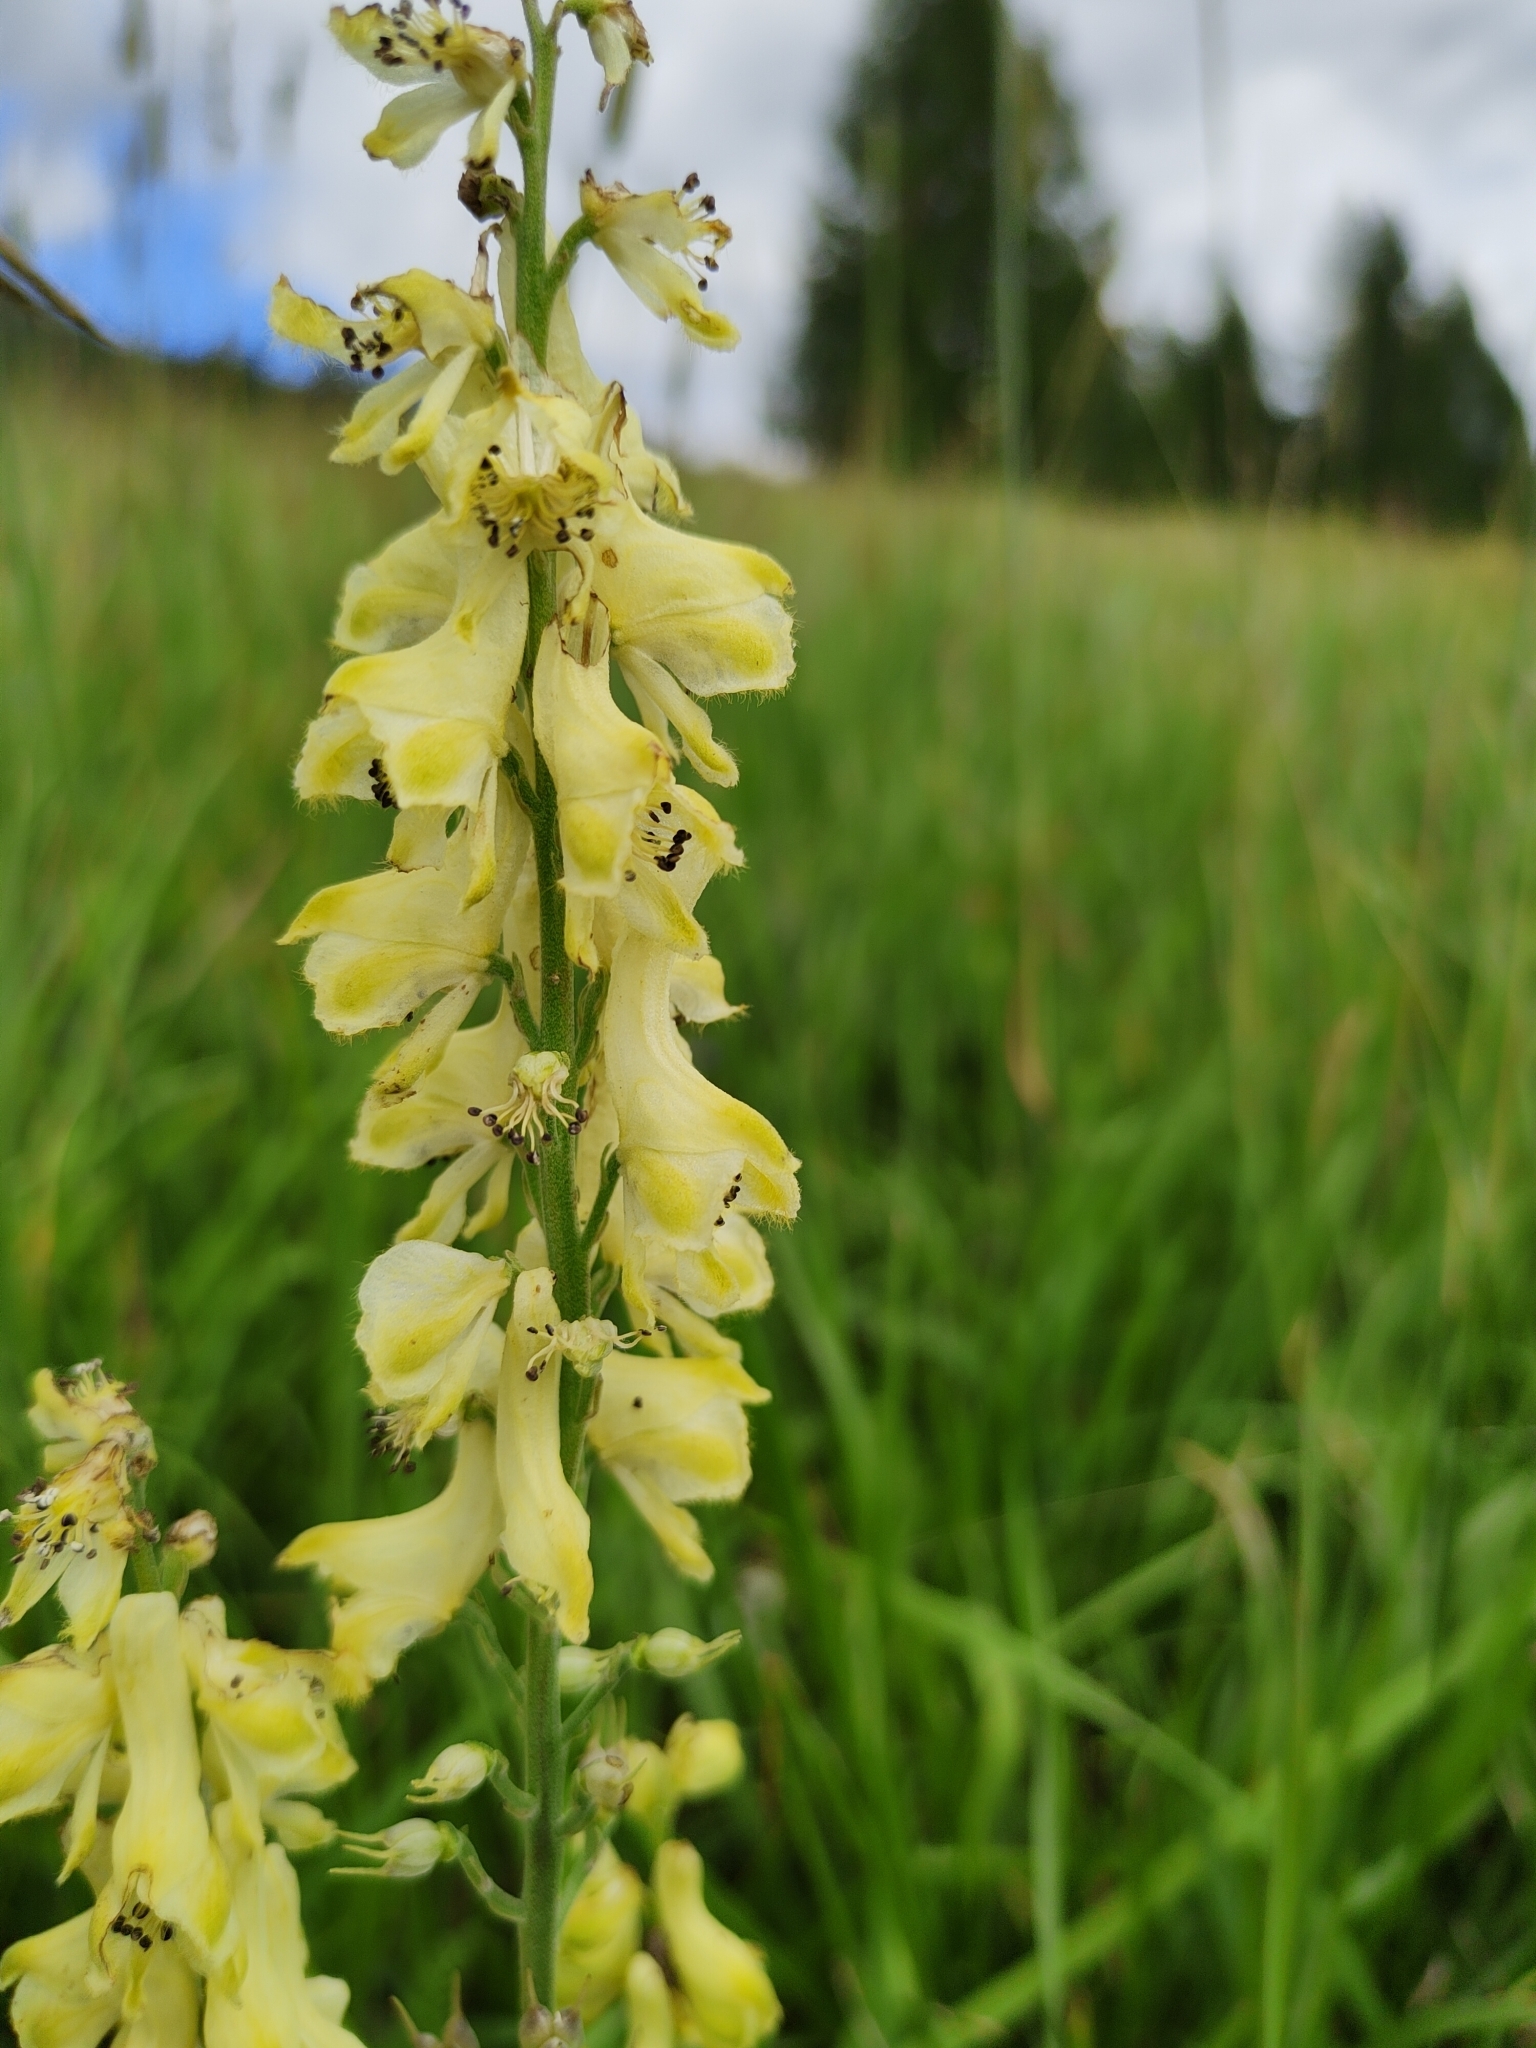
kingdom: Plantae
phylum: Tracheophyta
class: Magnoliopsida
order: Ranunculales
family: Ranunculaceae
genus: Aconitum
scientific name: Aconitum barbatum
